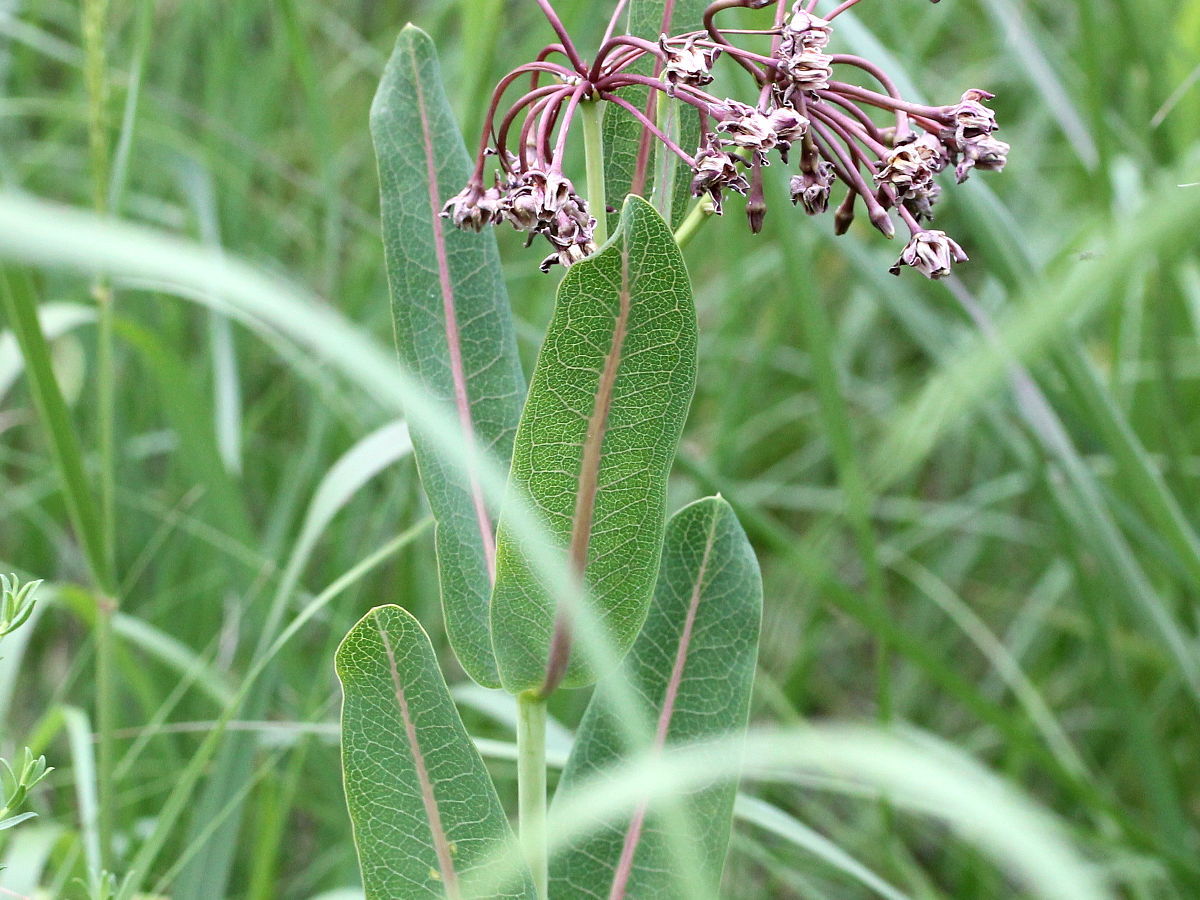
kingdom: Plantae
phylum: Tracheophyta
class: Magnoliopsida
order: Gentianales
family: Apocynaceae
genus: Asclepias
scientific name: Asclepias sullivantii
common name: Prairie milkweed
